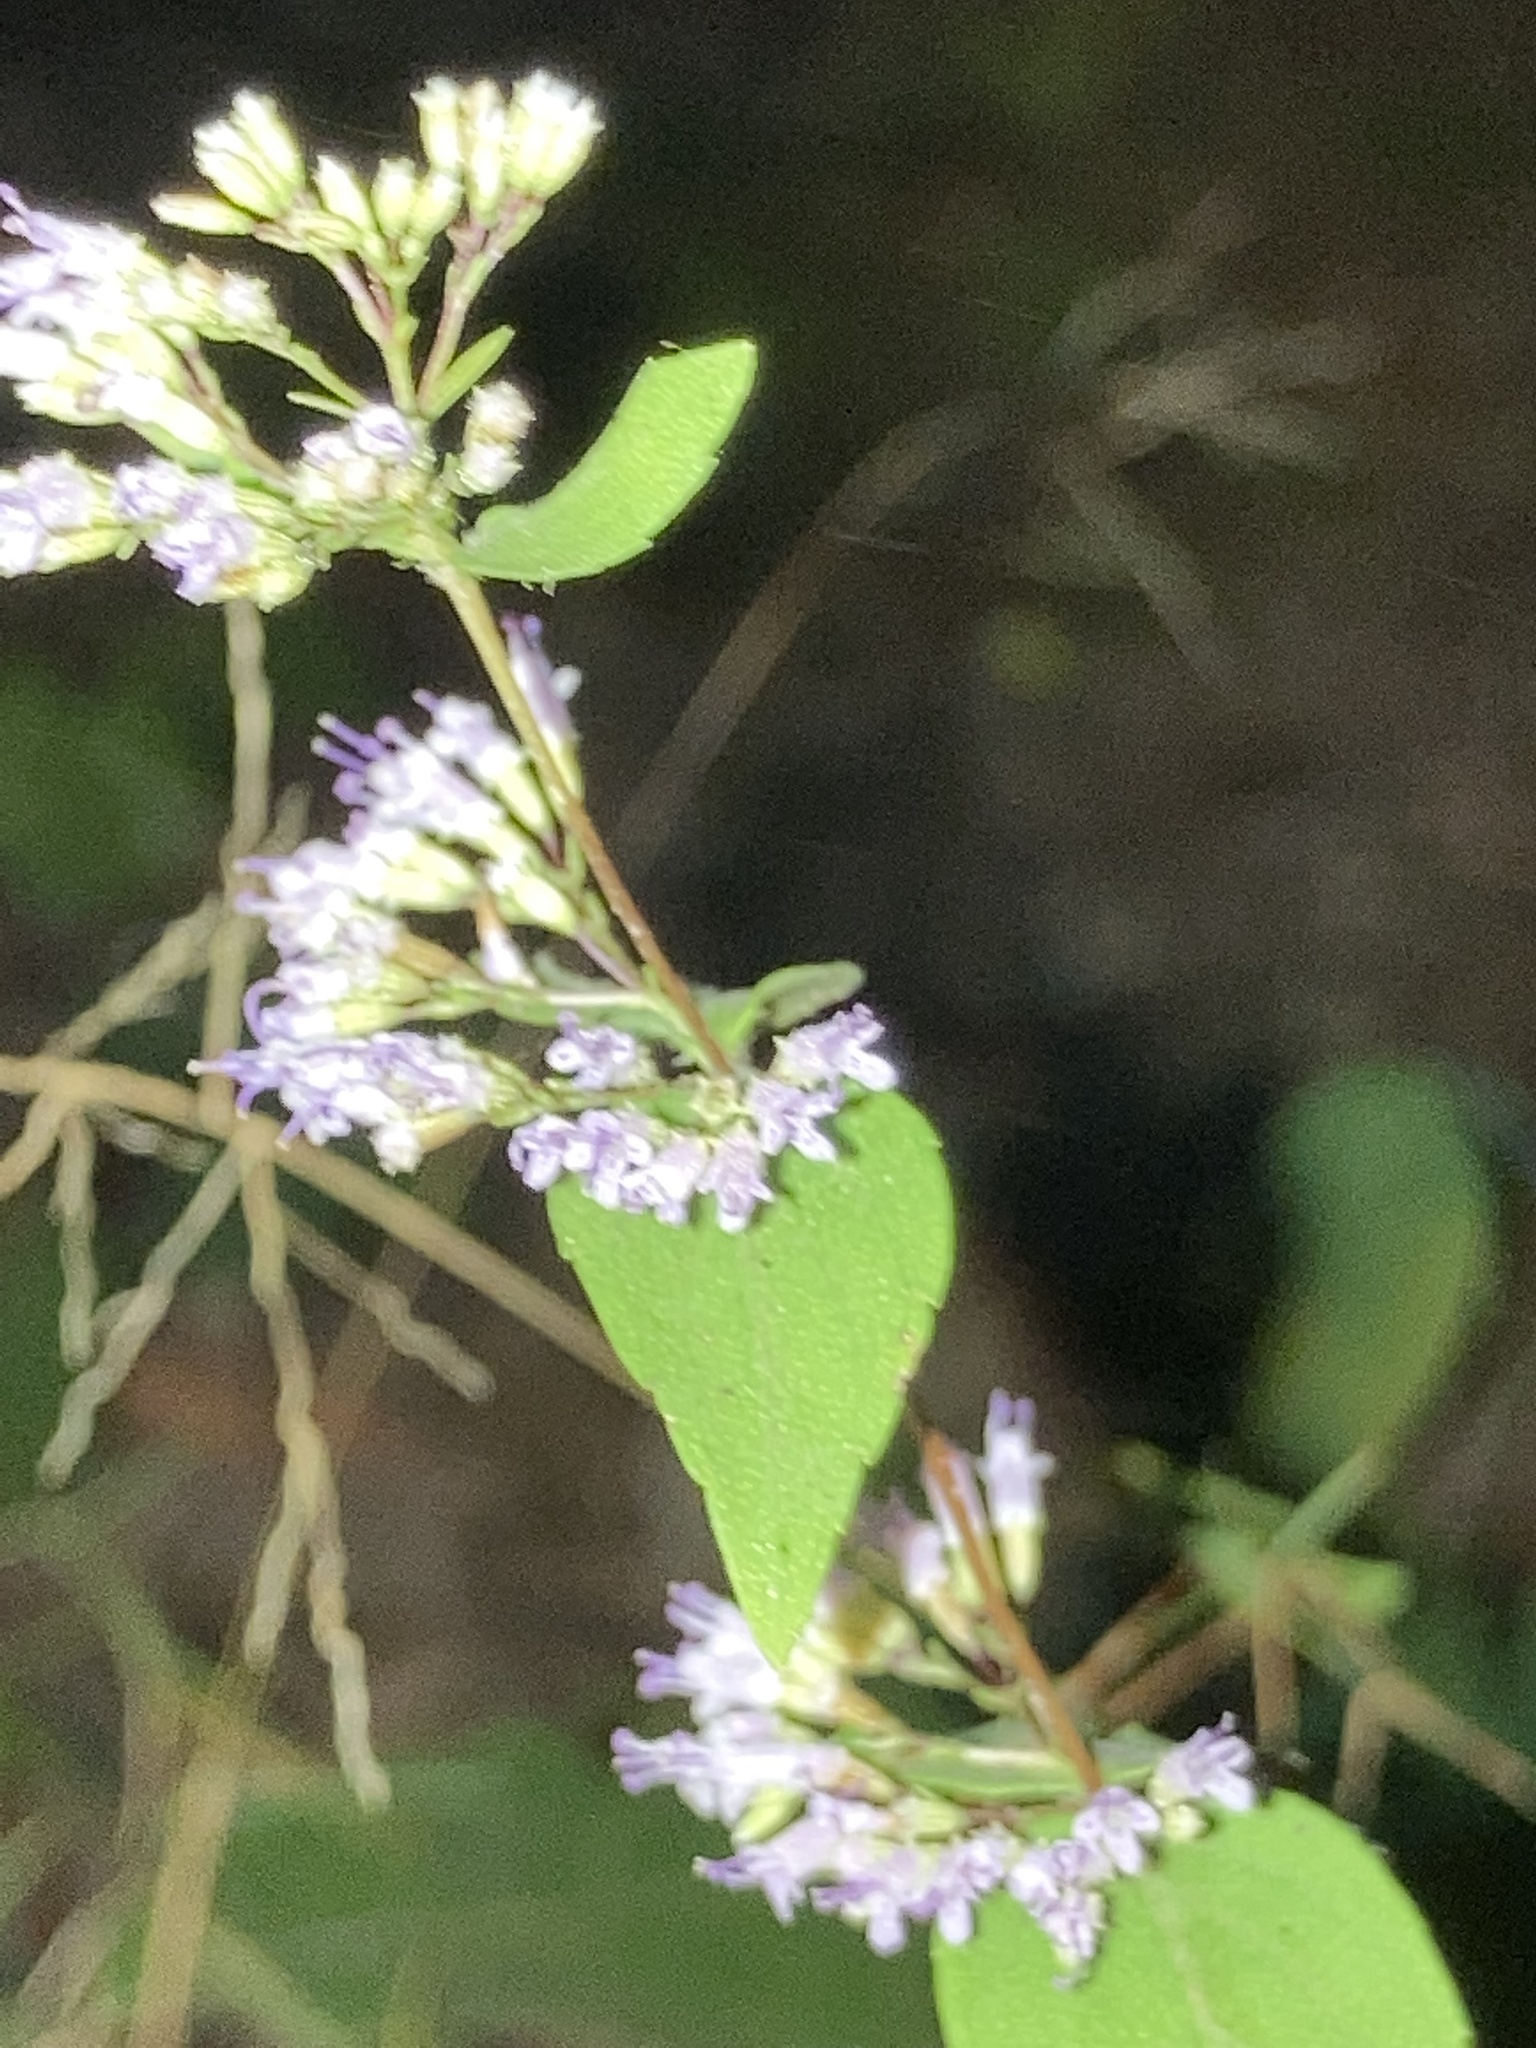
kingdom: Plantae
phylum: Tracheophyta
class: Magnoliopsida
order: Lamiales
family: Lamiaceae
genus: Cunila
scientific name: Cunila origanoides
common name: American dittany
